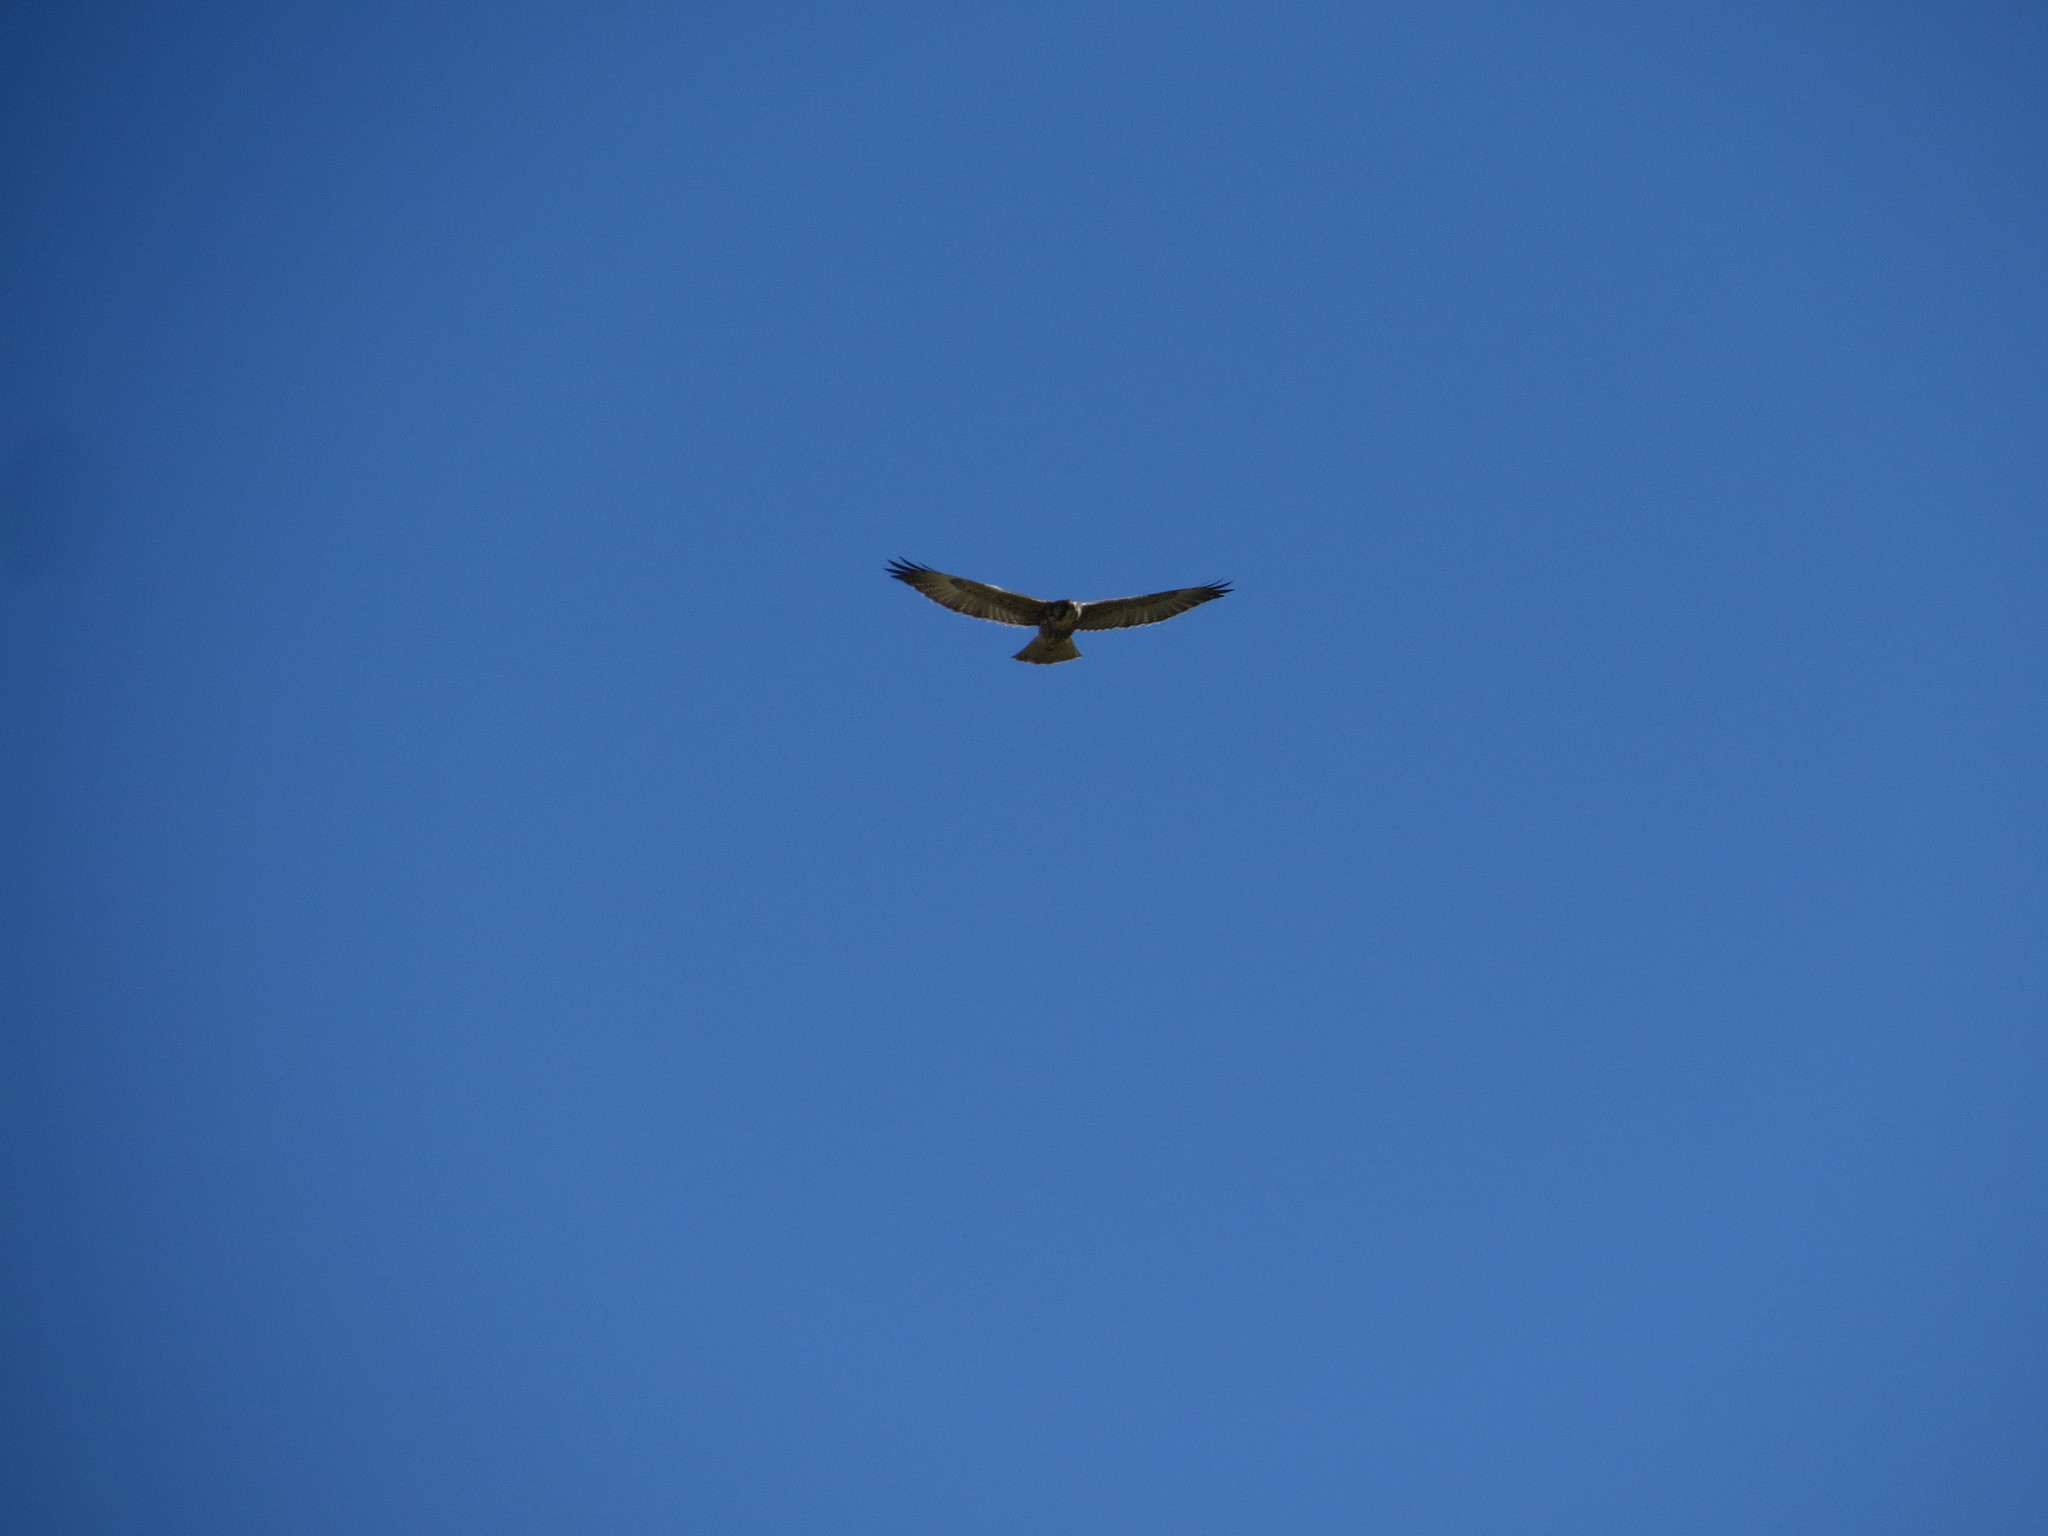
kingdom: Animalia
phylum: Chordata
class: Aves
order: Accipitriformes
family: Accipitridae
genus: Buteo
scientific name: Buteo polyosoma
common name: Variable hawk
